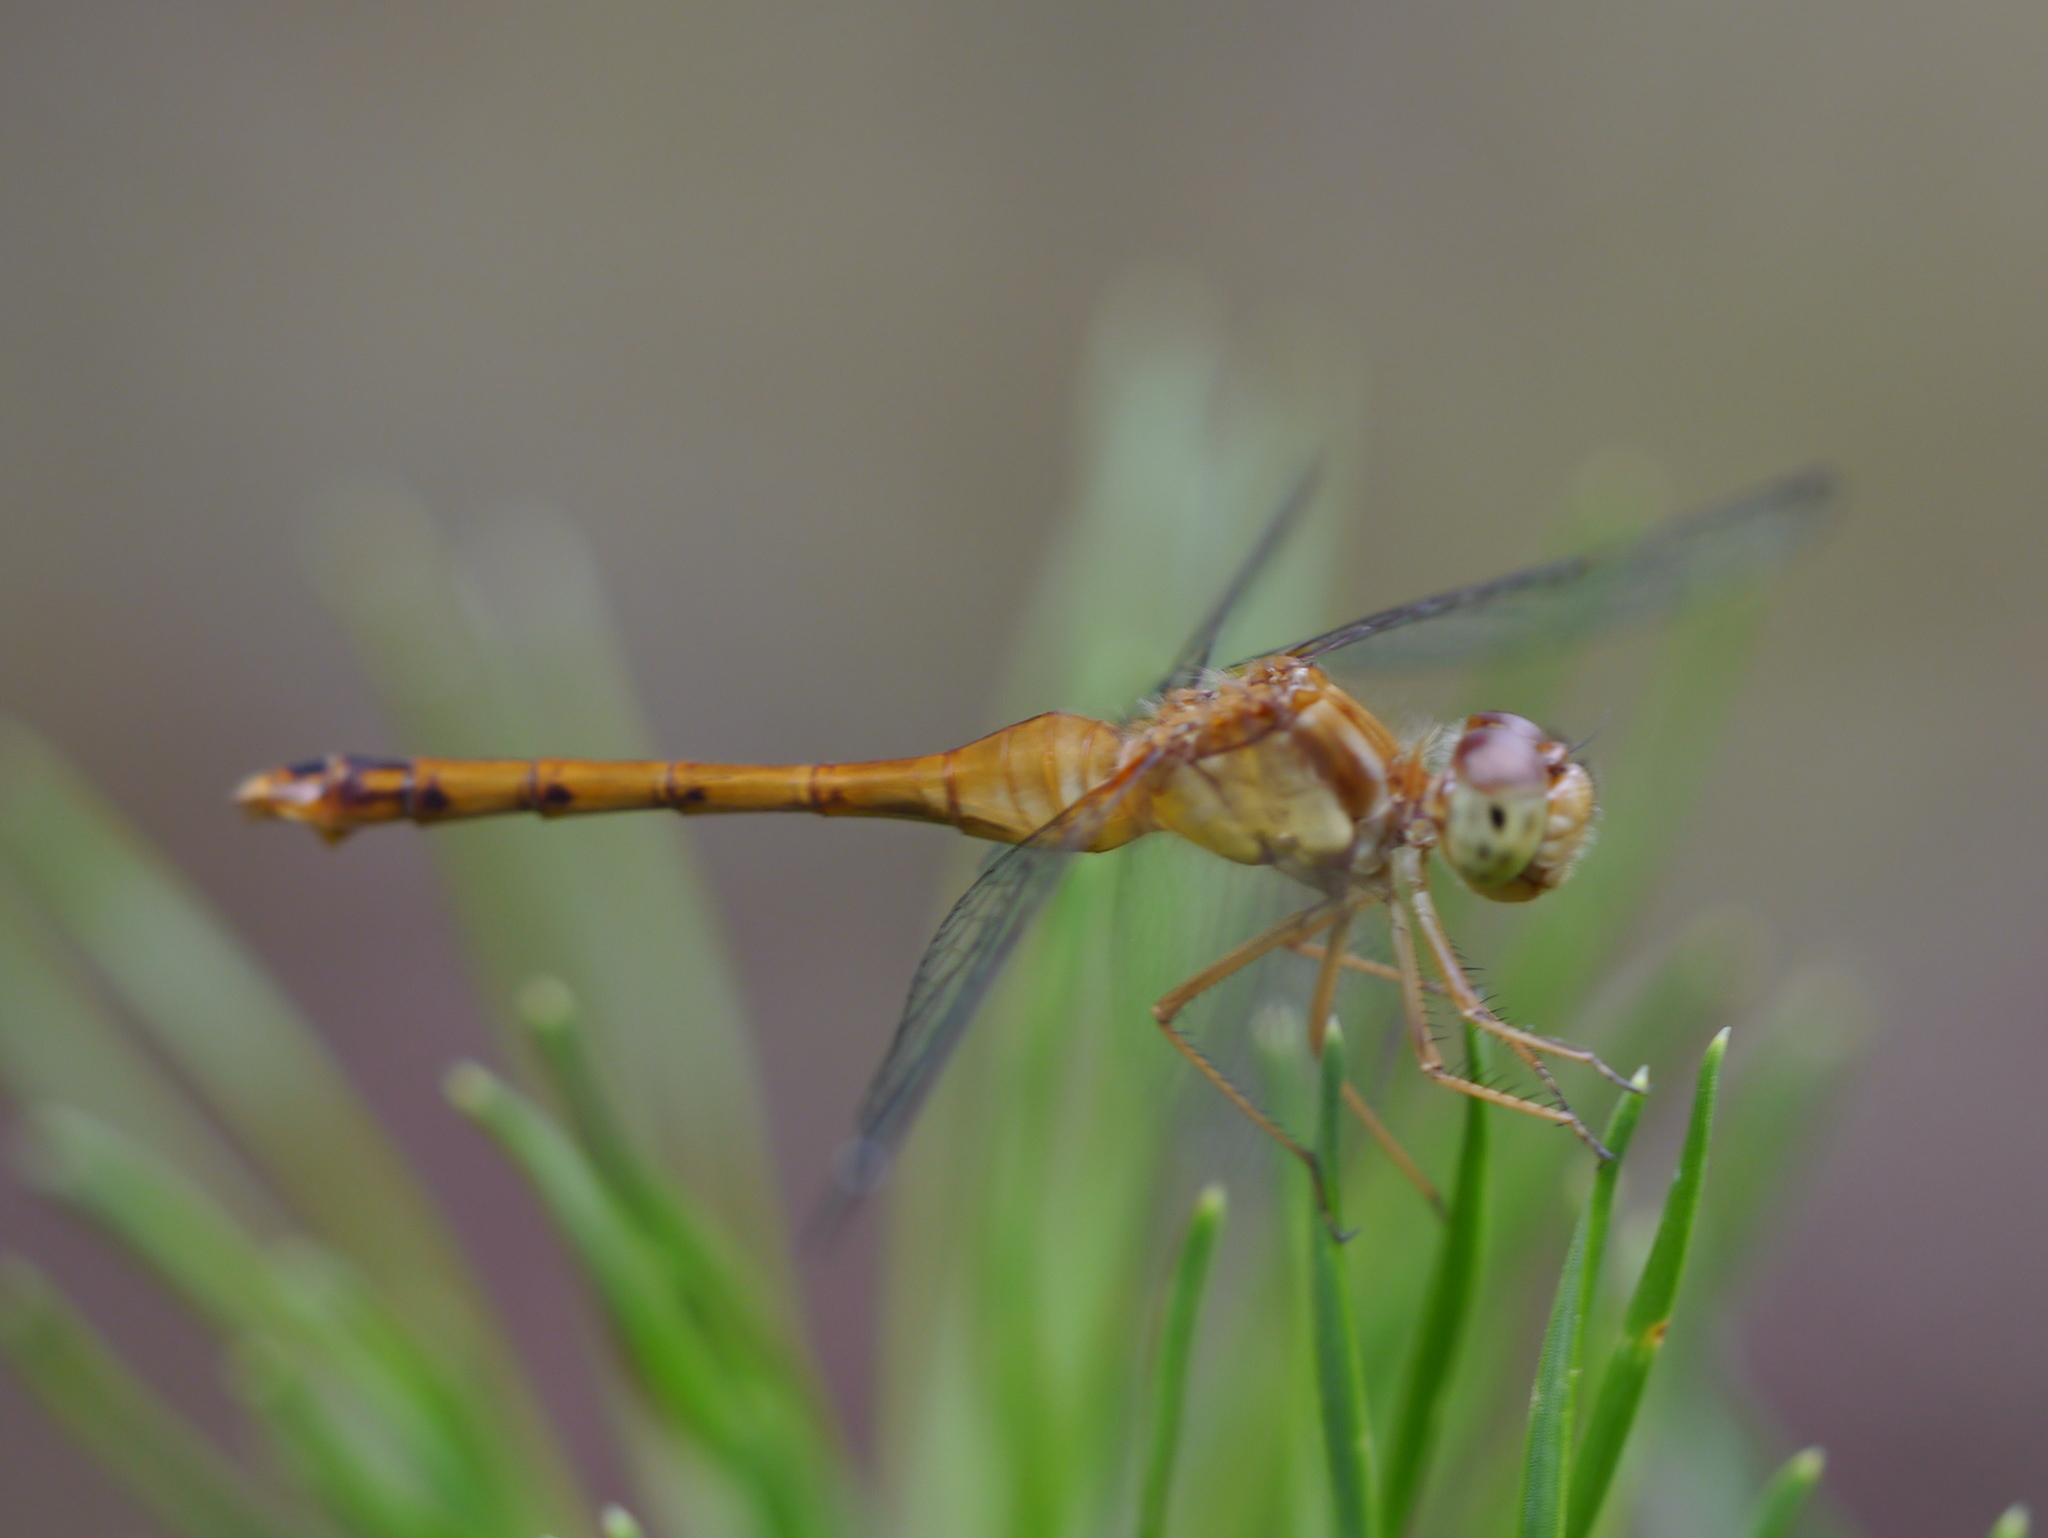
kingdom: Animalia
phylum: Arthropoda
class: Insecta
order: Odonata
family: Libellulidae
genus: Sympetrum
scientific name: Sympetrum vicinum
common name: Autumn meadowhawk
